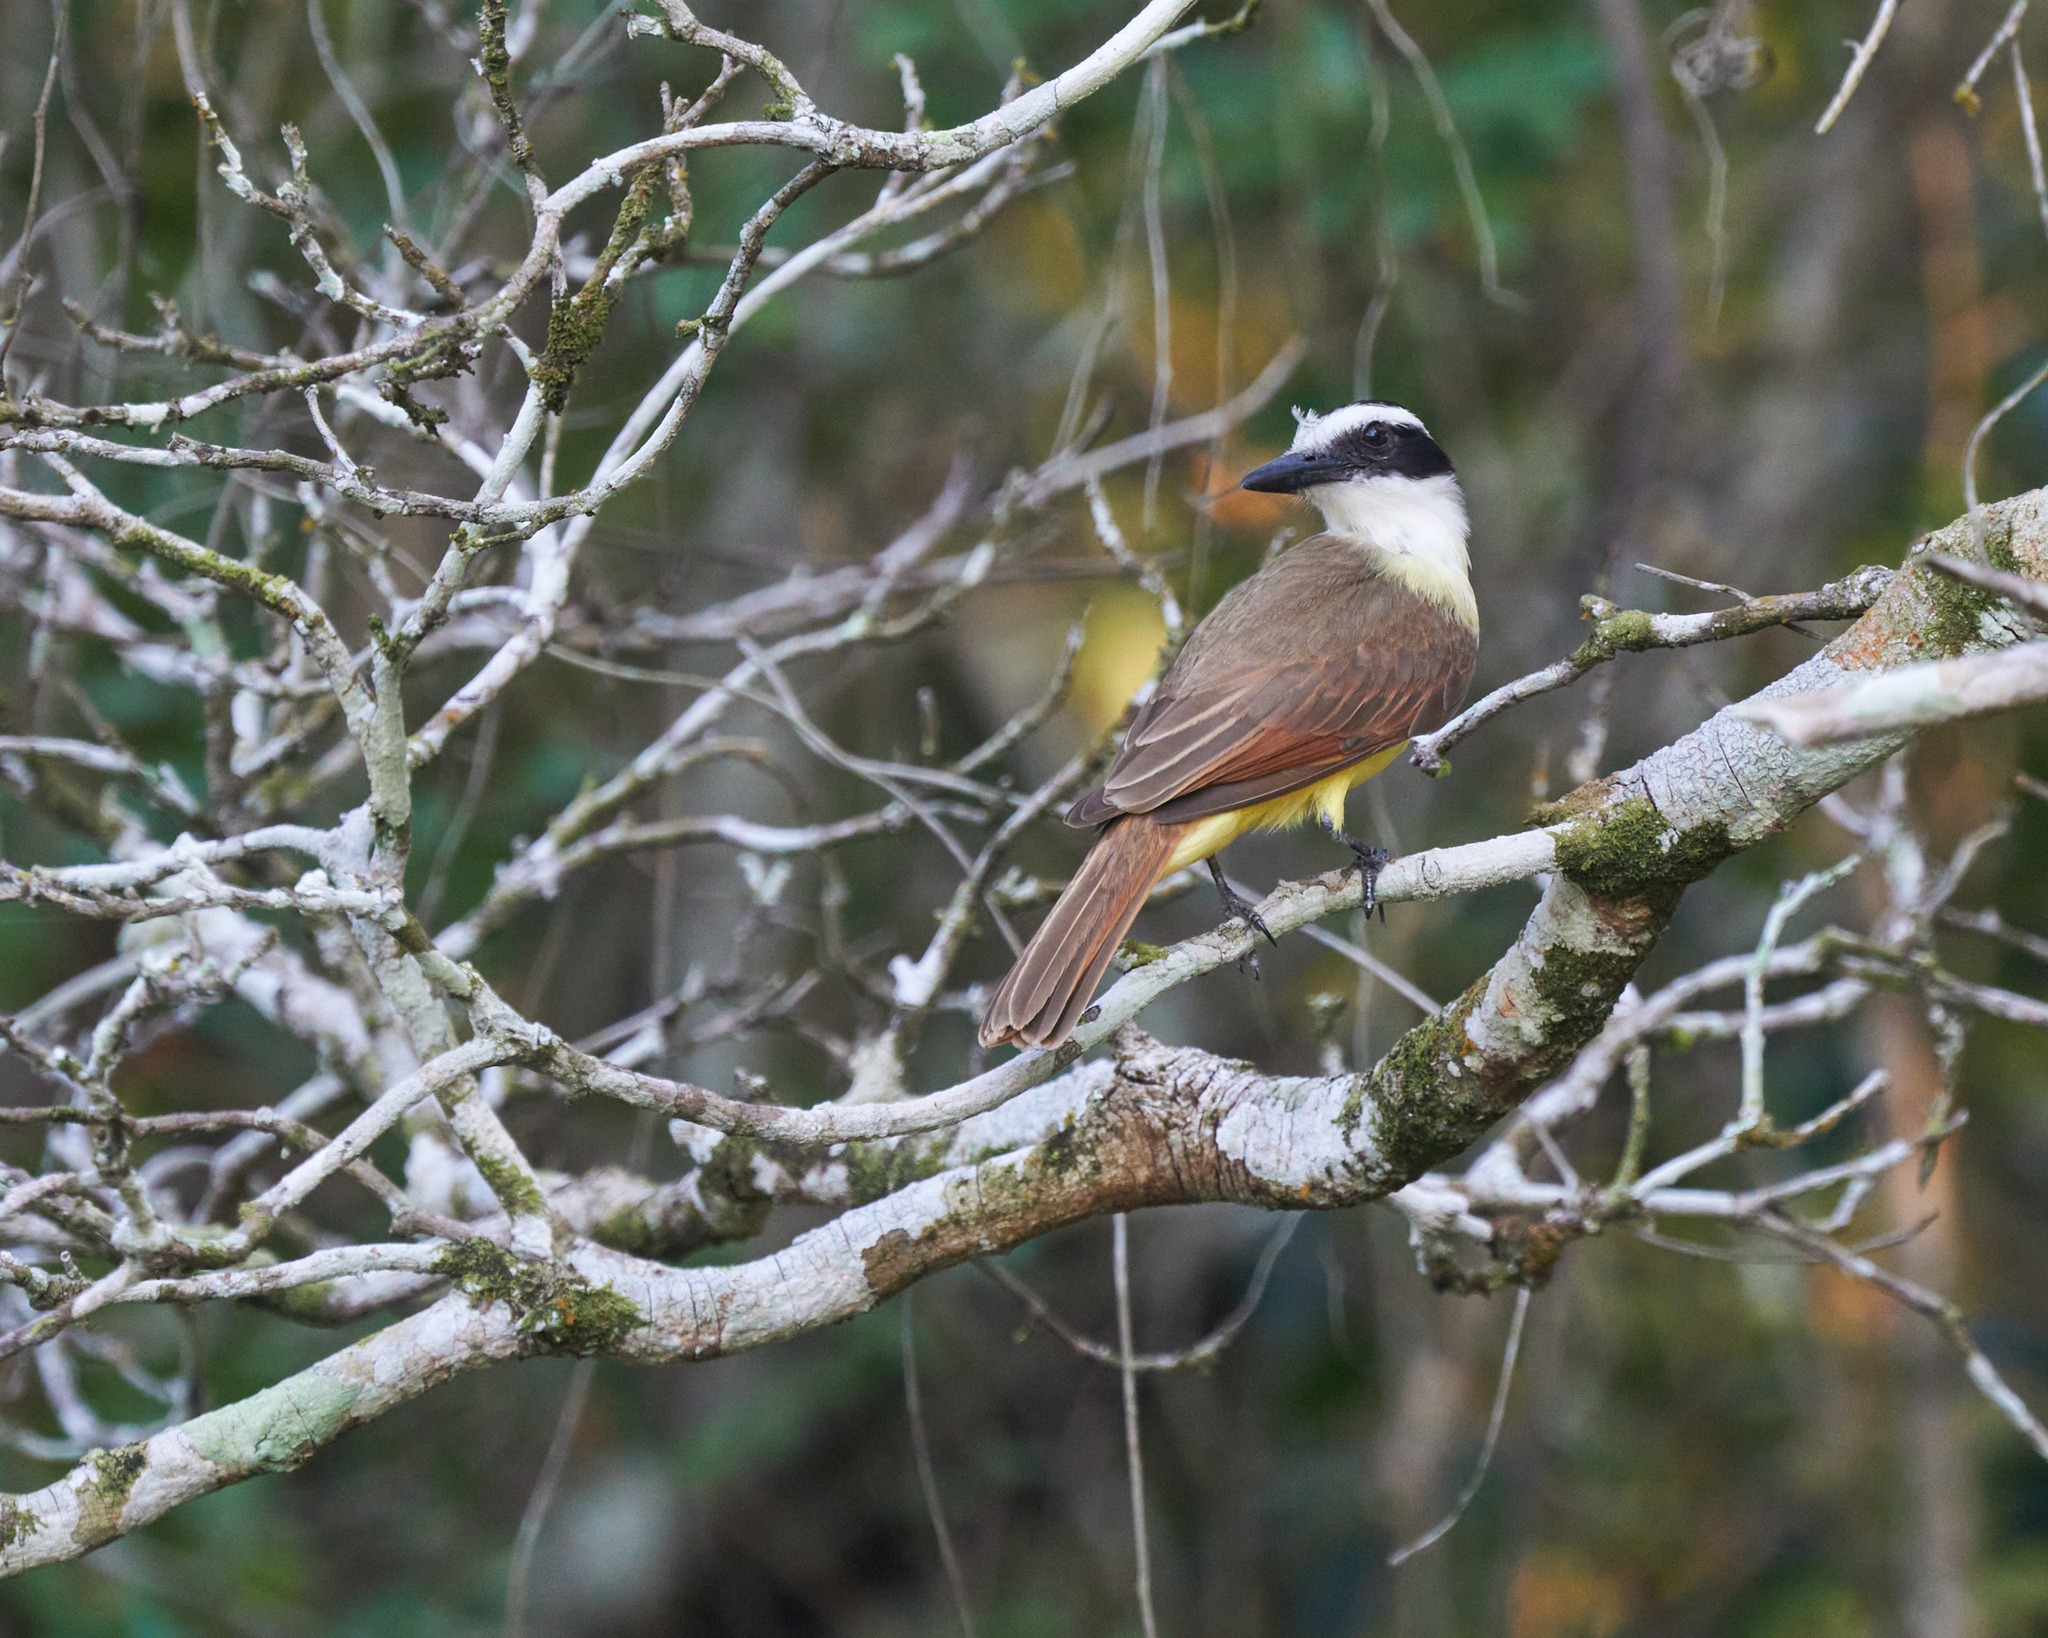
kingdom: Animalia
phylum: Chordata
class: Aves
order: Passeriformes
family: Tyrannidae
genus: Pitangus
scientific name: Pitangus sulphuratus
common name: Great kiskadee
